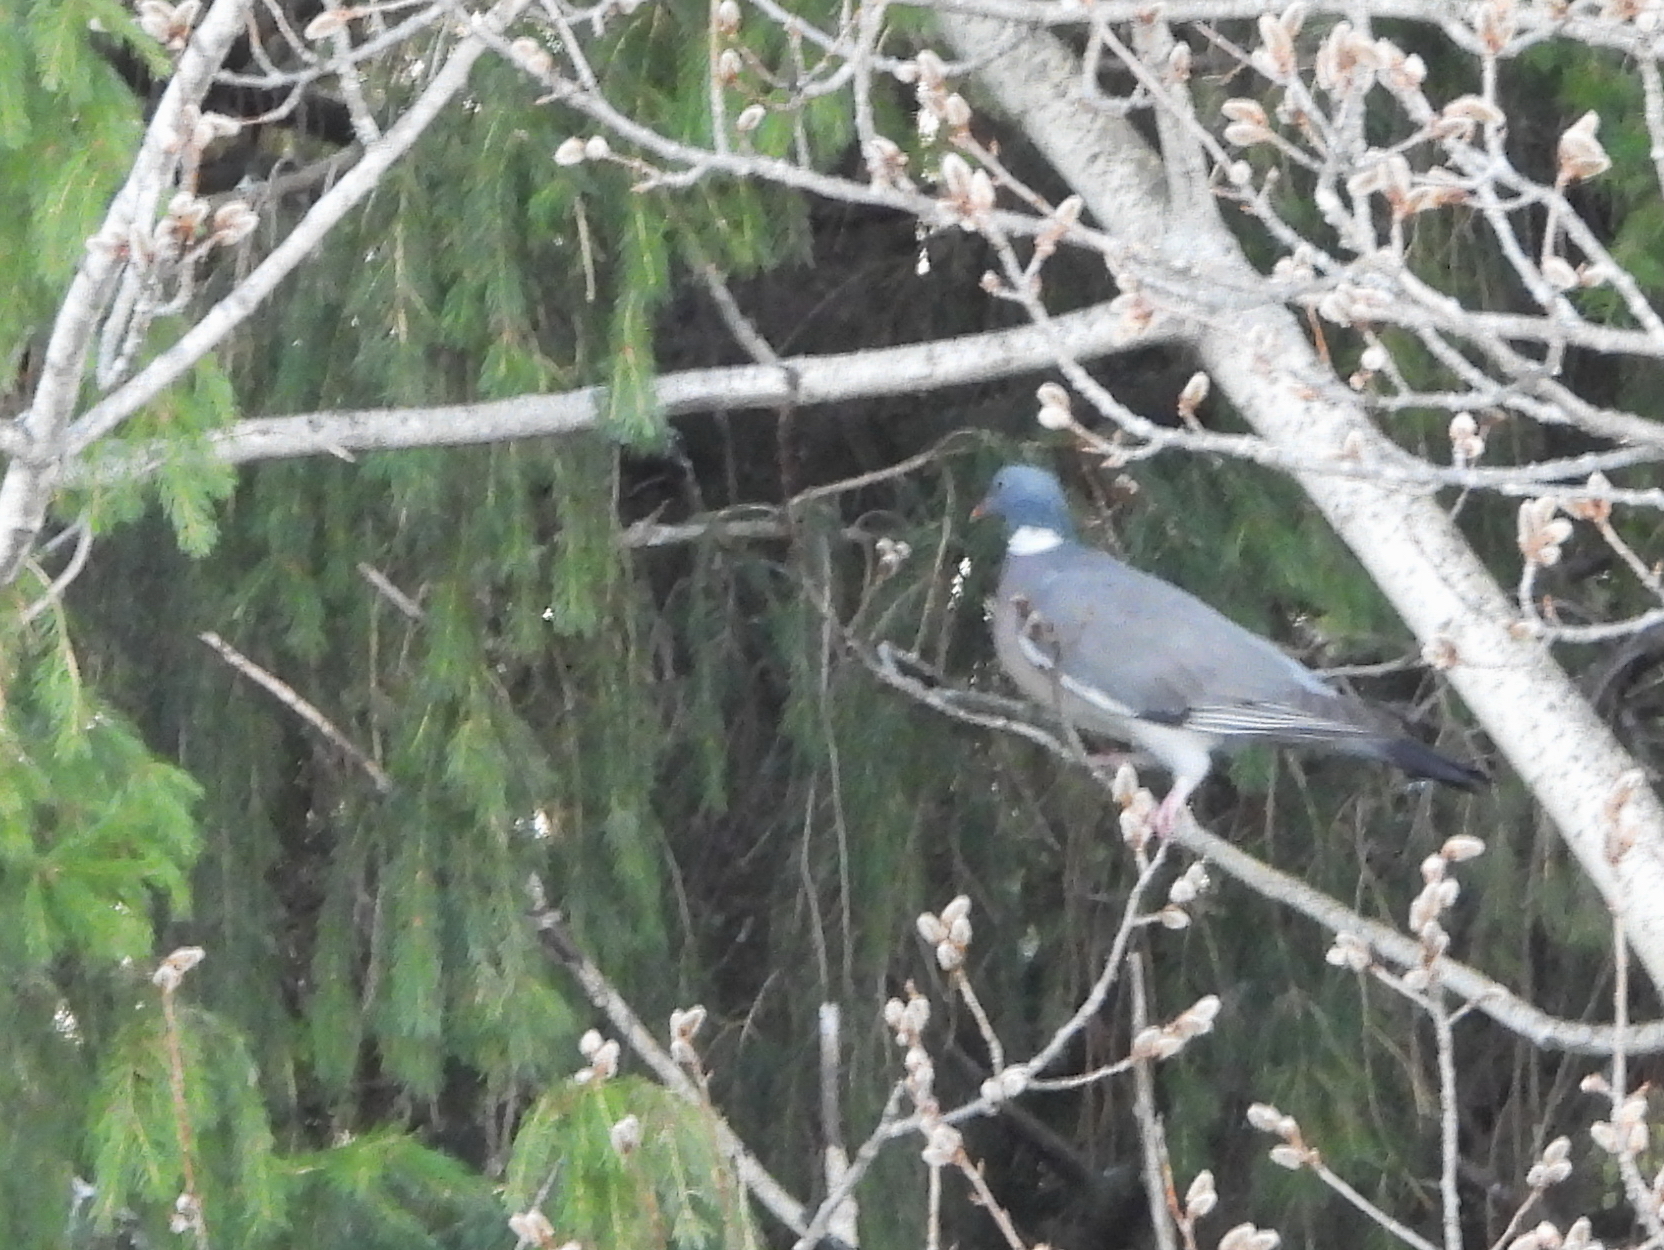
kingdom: Animalia
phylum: Chordata
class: Aves
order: Columbiformes
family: Columbidae
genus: Columba
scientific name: Columba palumbus
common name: Common wood pigeon
